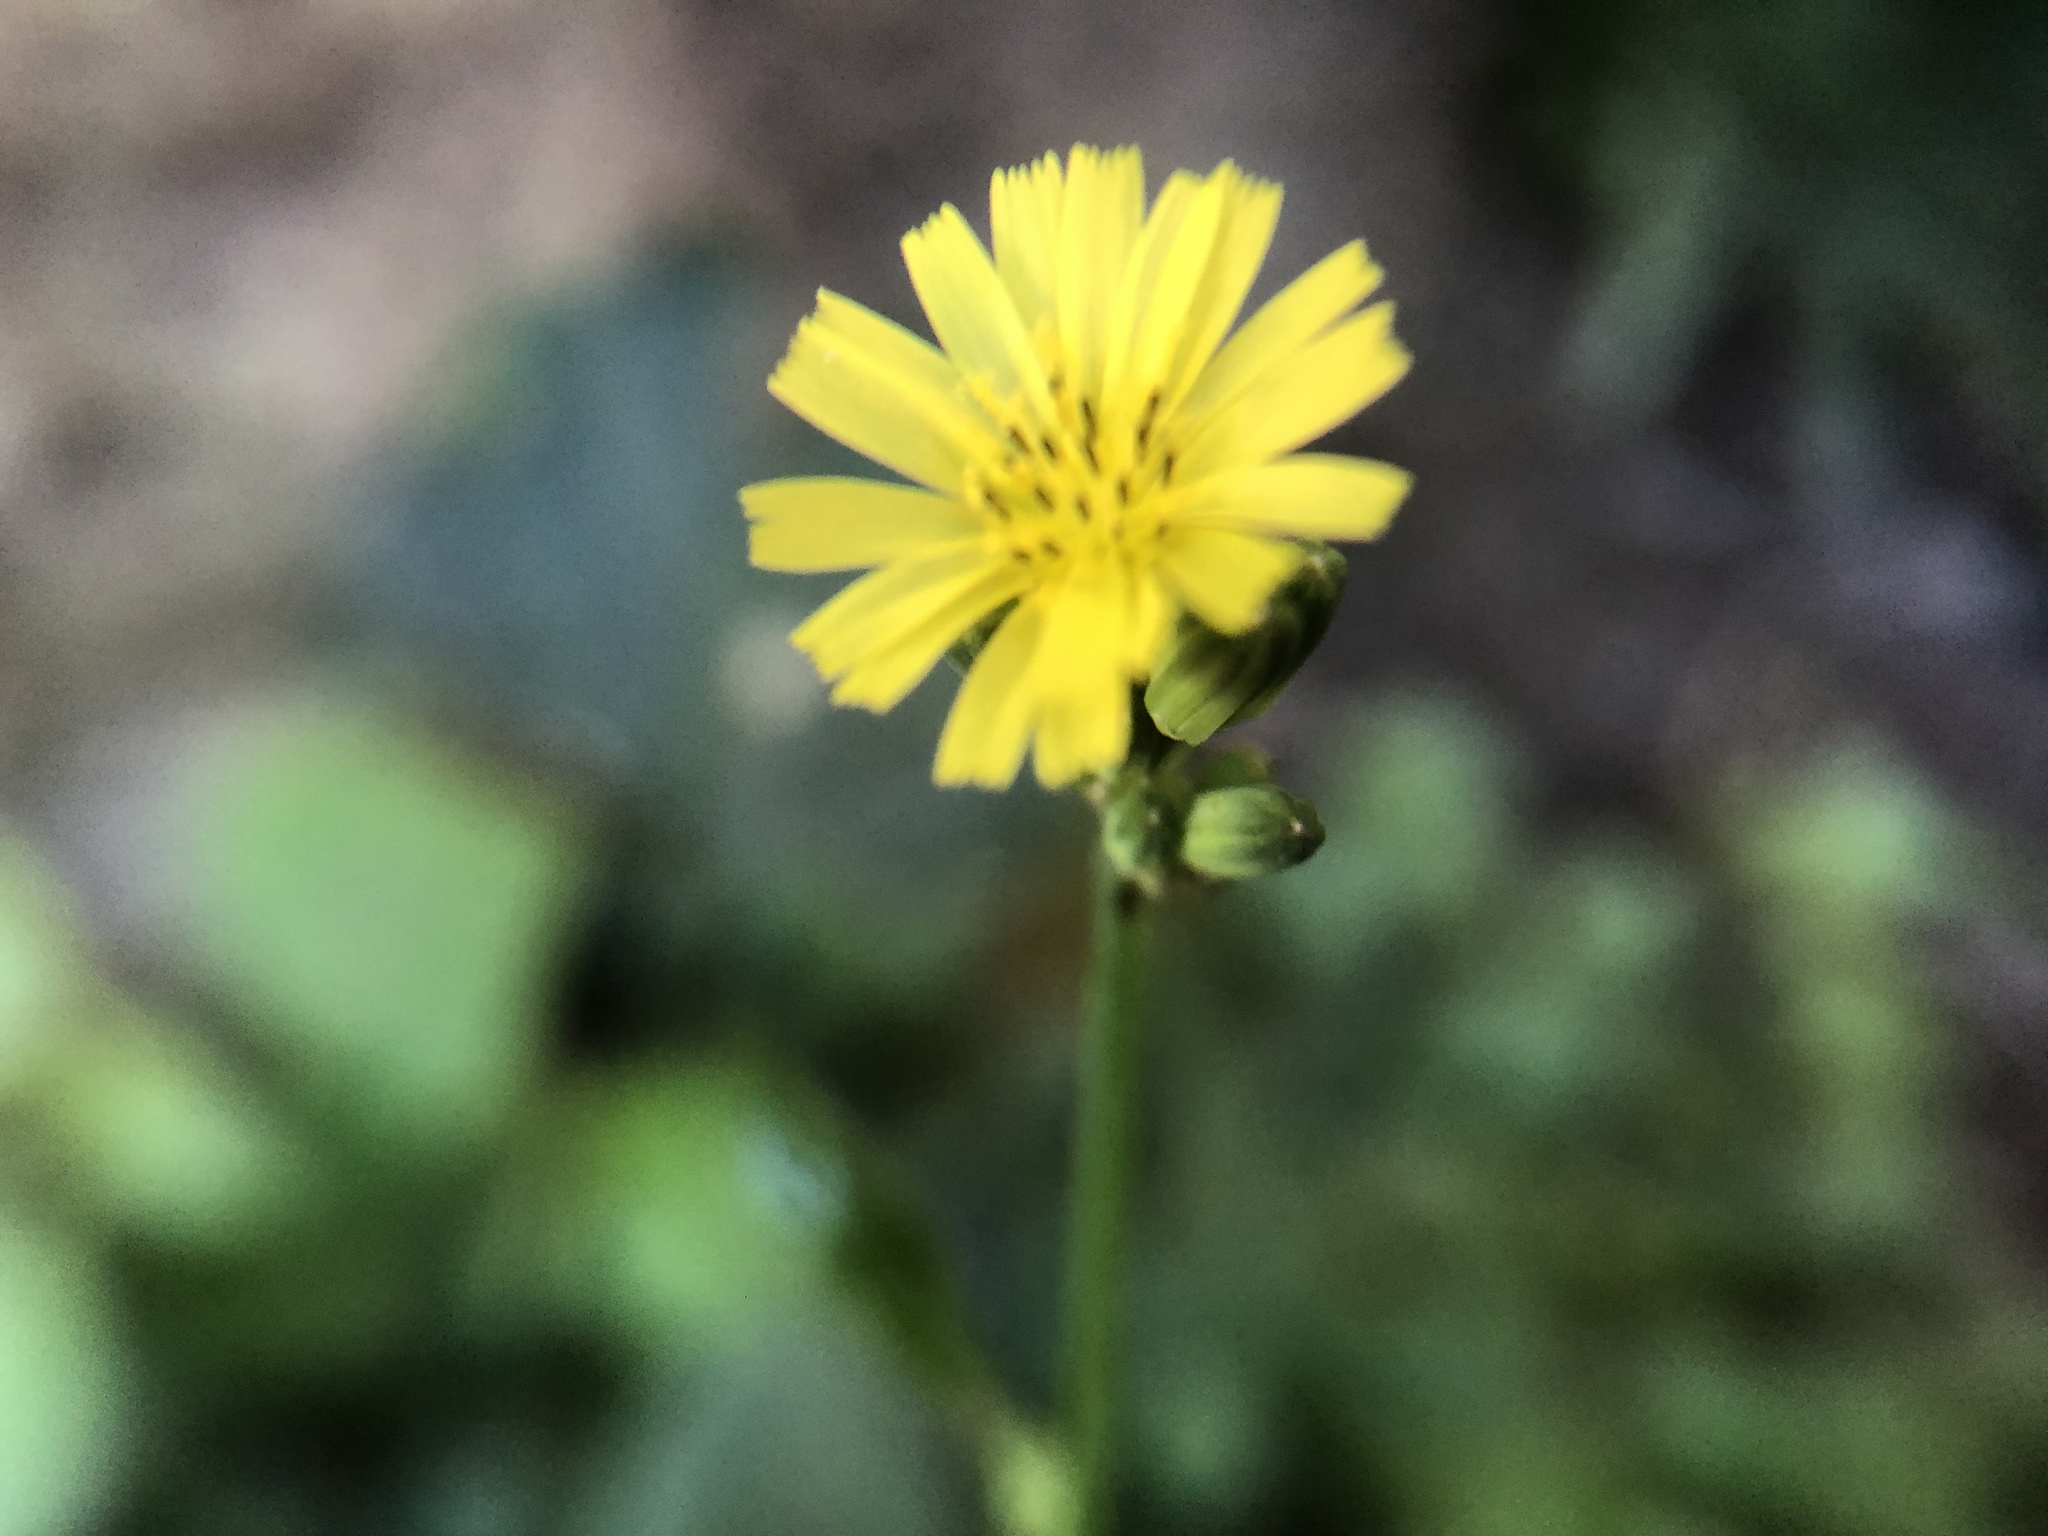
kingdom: Plantae
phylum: Tracheophyta
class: Magnoliopsida
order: Asterales
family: Asteraceae
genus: Youngia
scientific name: Youngia japonica
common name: Oriental false hawksbeard
